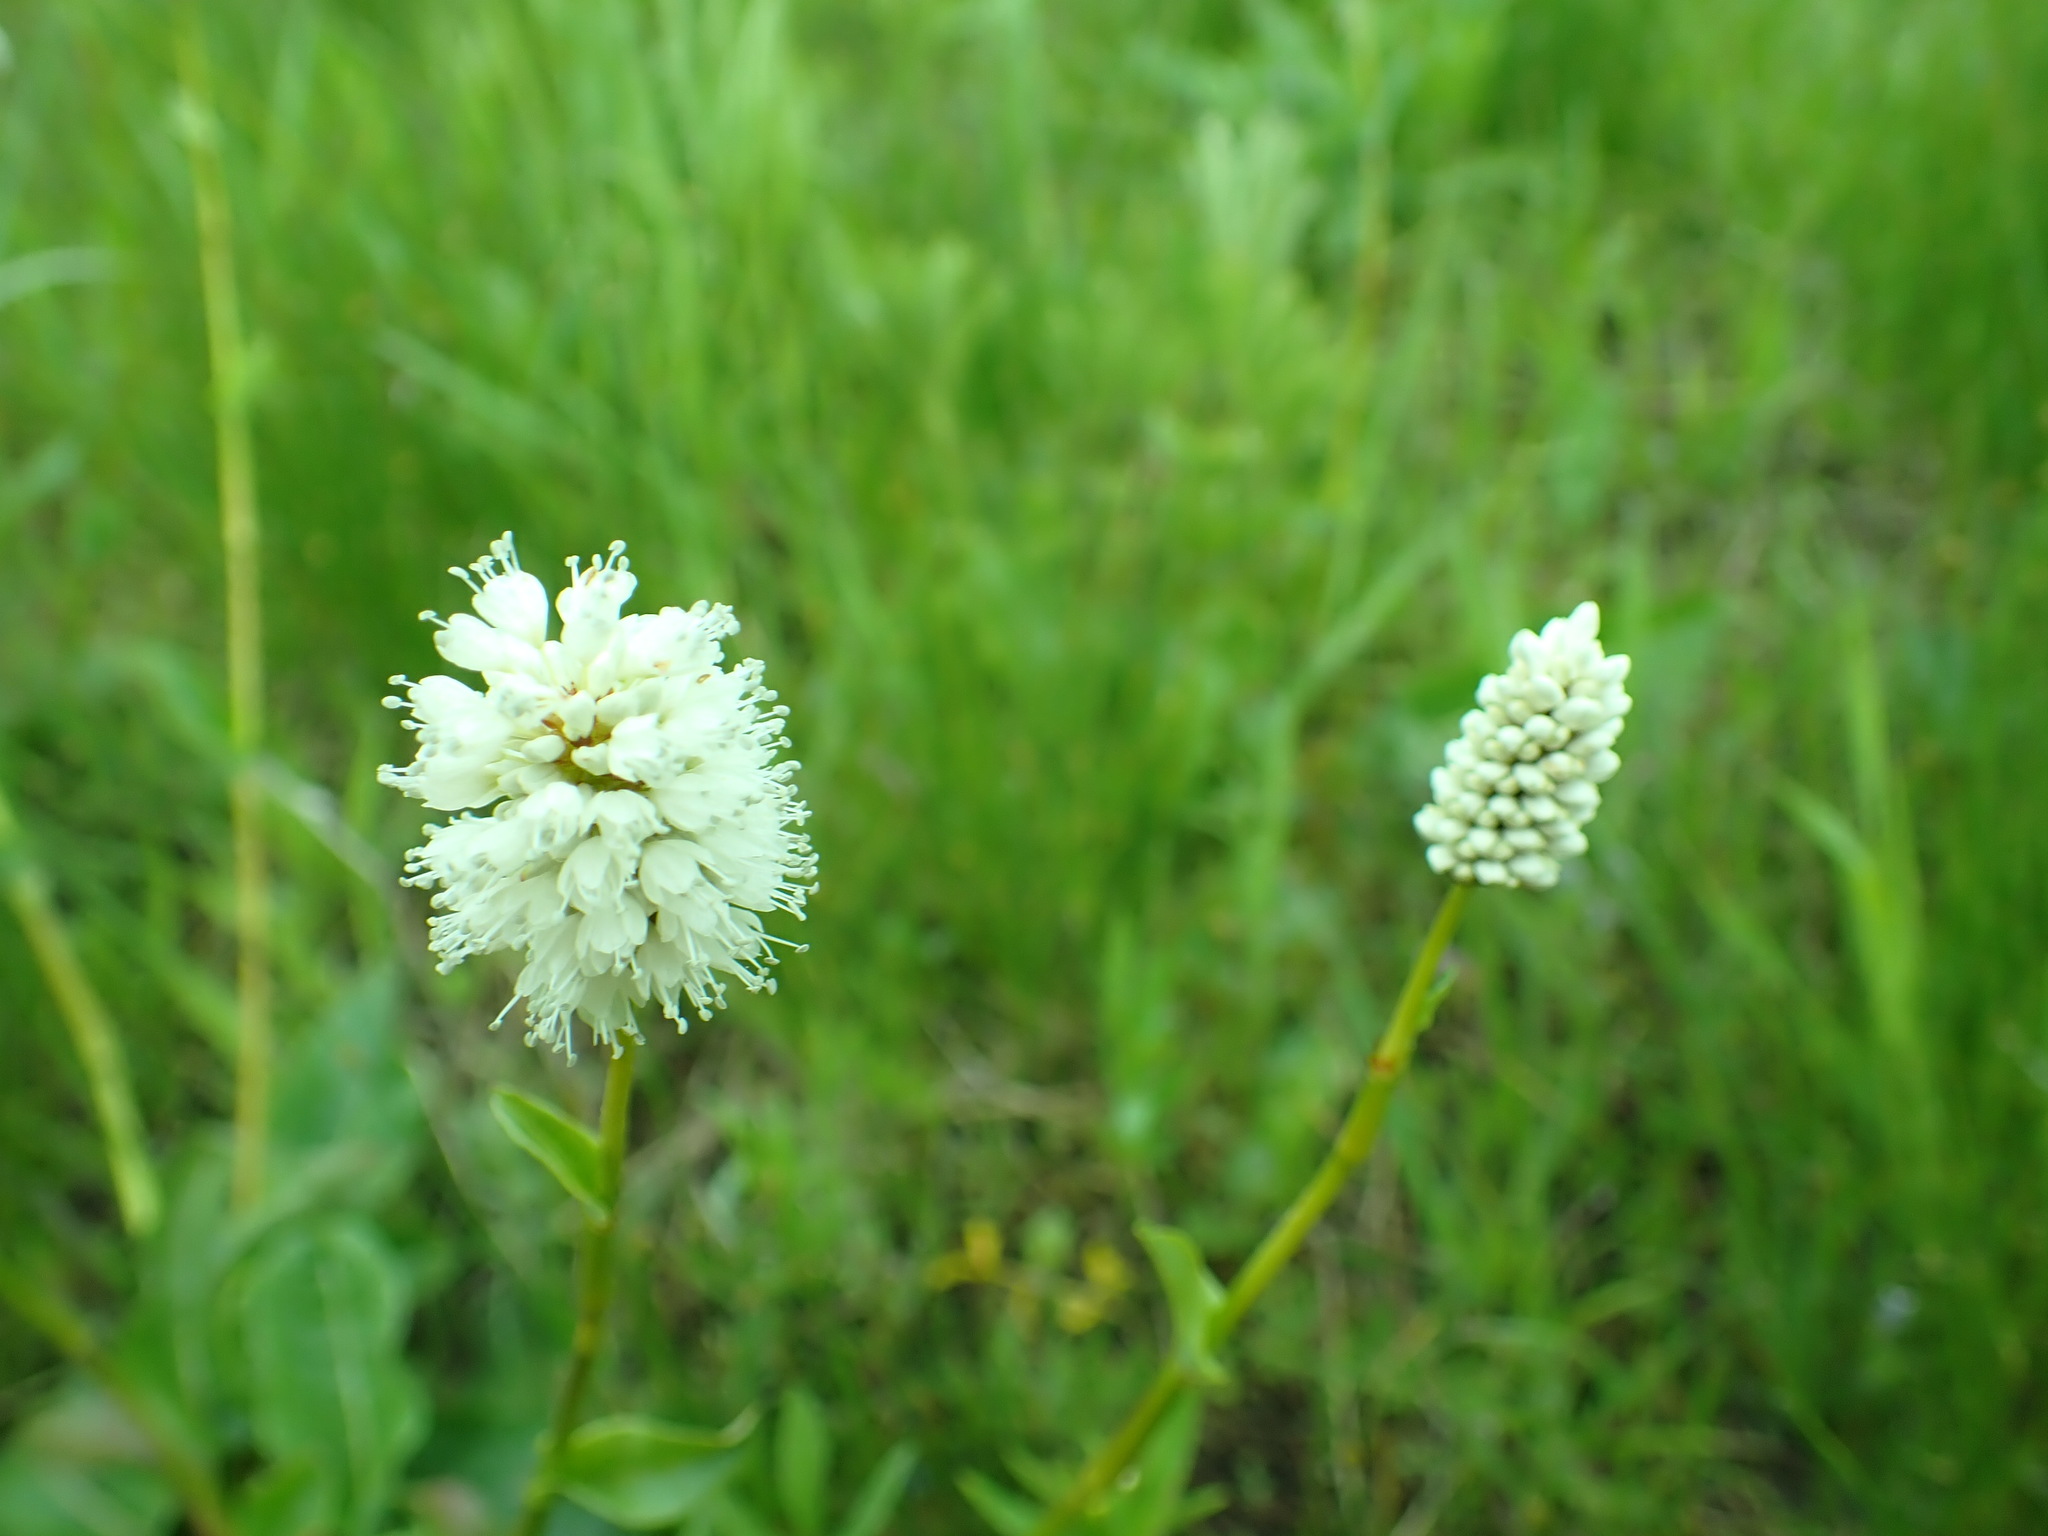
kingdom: Plantae
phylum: Tracheophyta
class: Magnoliopsida
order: Caryophyllales
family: Polygonaceae
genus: Bistorta
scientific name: Bistorta bistortoides
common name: American bistort
